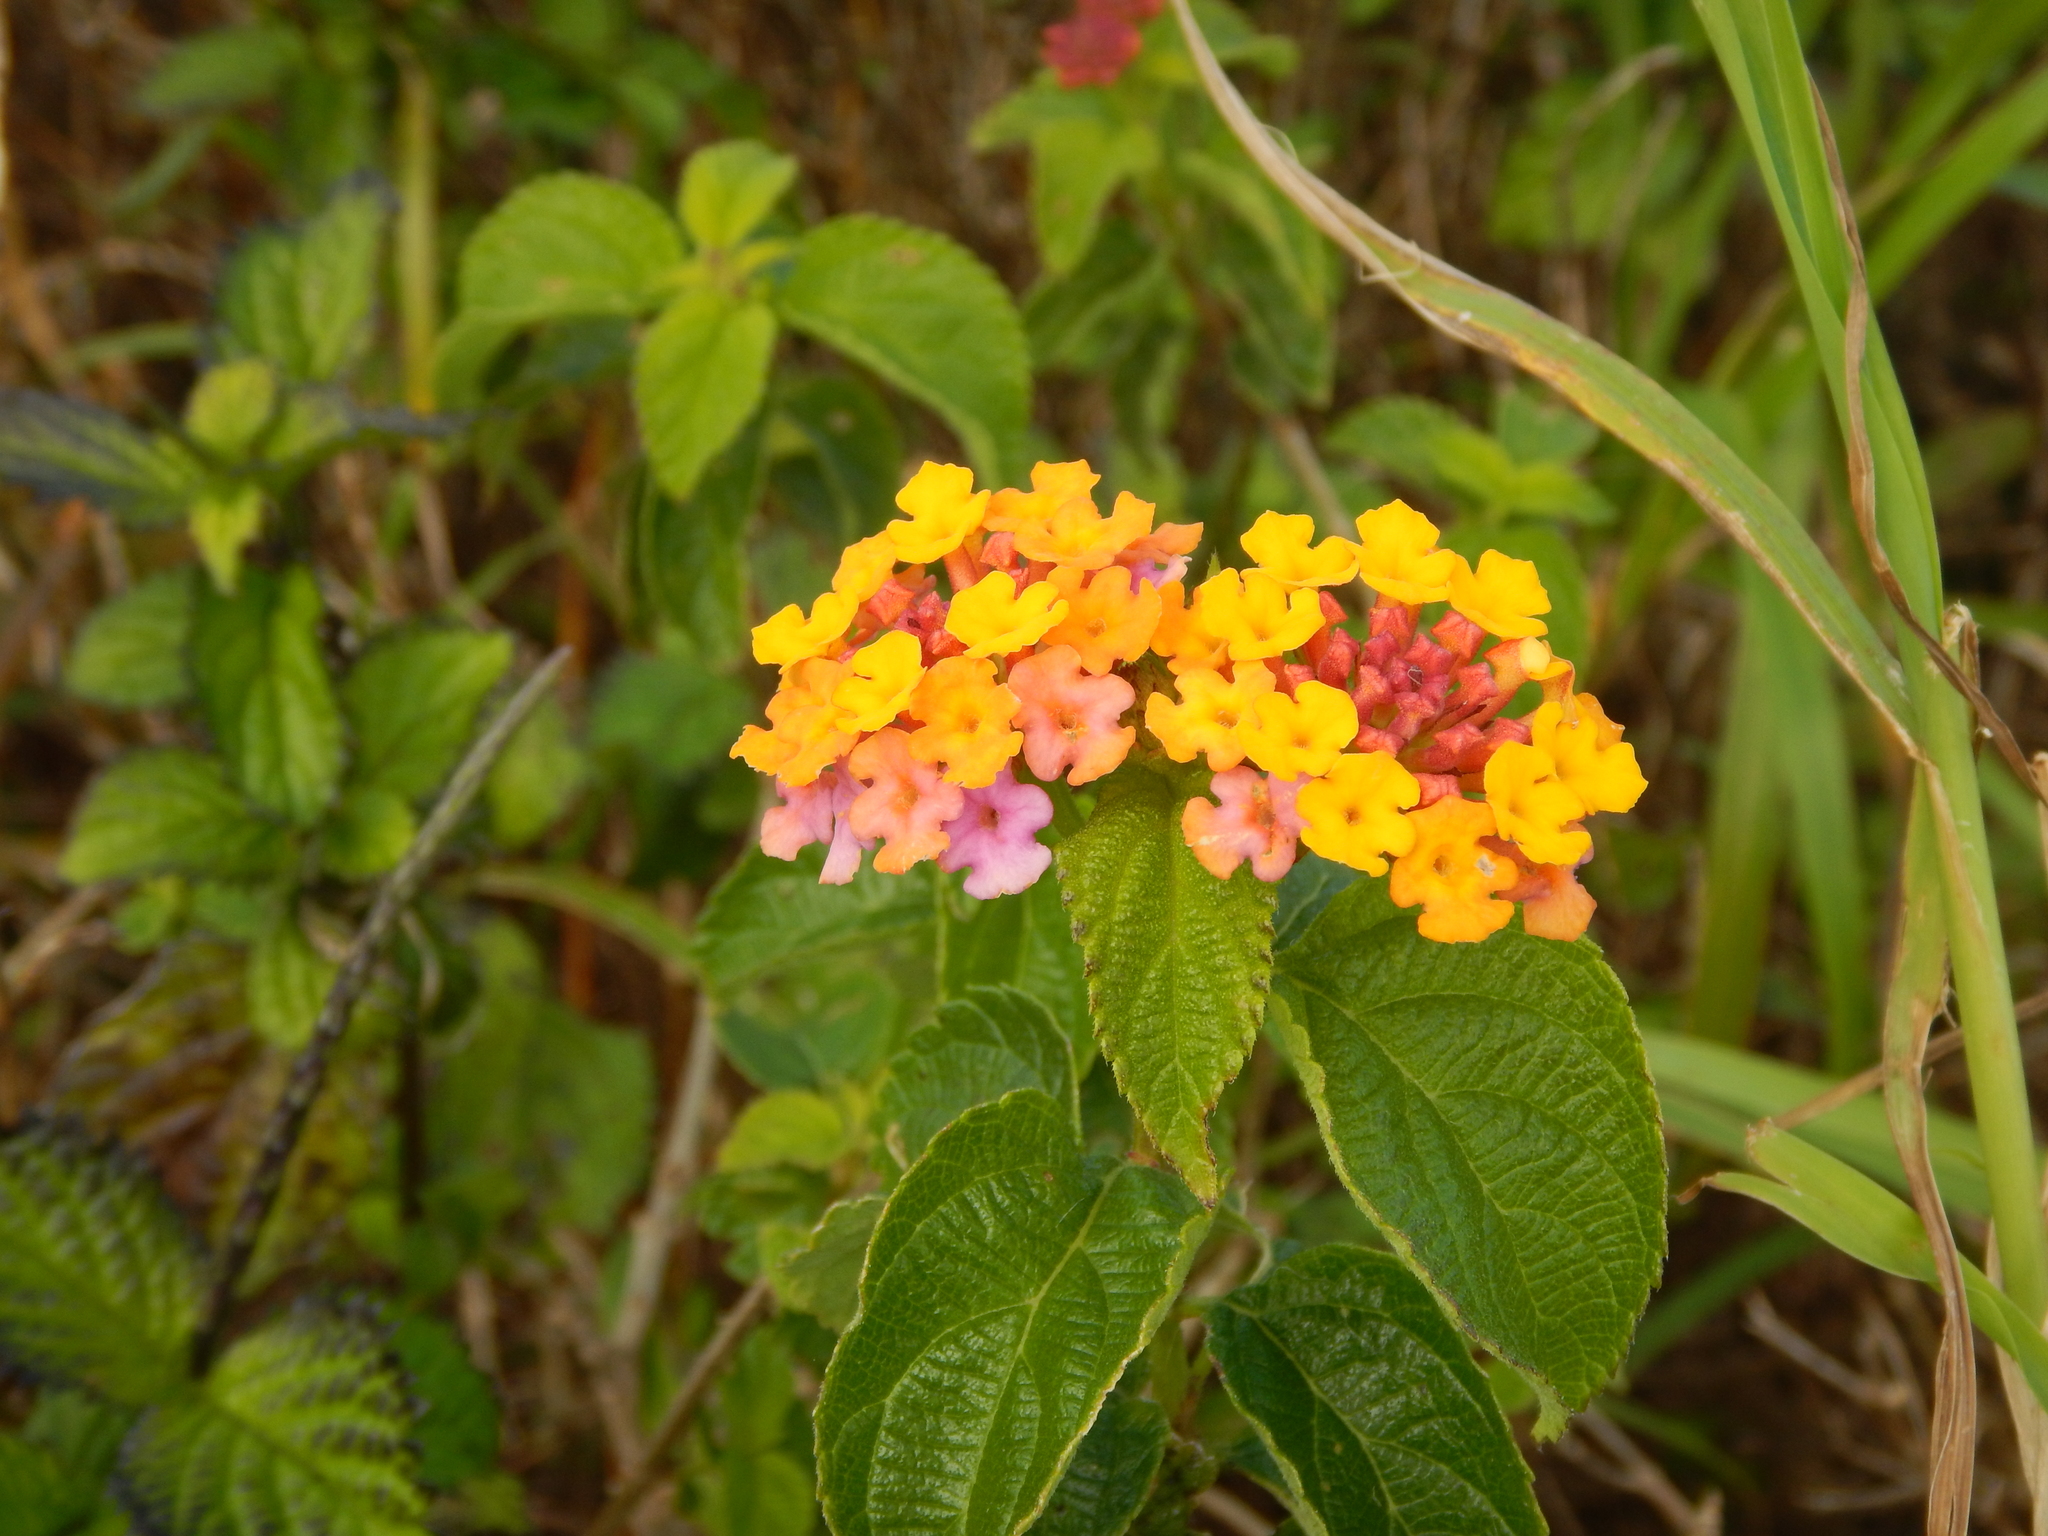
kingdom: Plantae
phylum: Tracheophyta
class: Magnoliopsida
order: Lamiales
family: Verbenaceae
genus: Lantana
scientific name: Lantana camara
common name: Lantana
